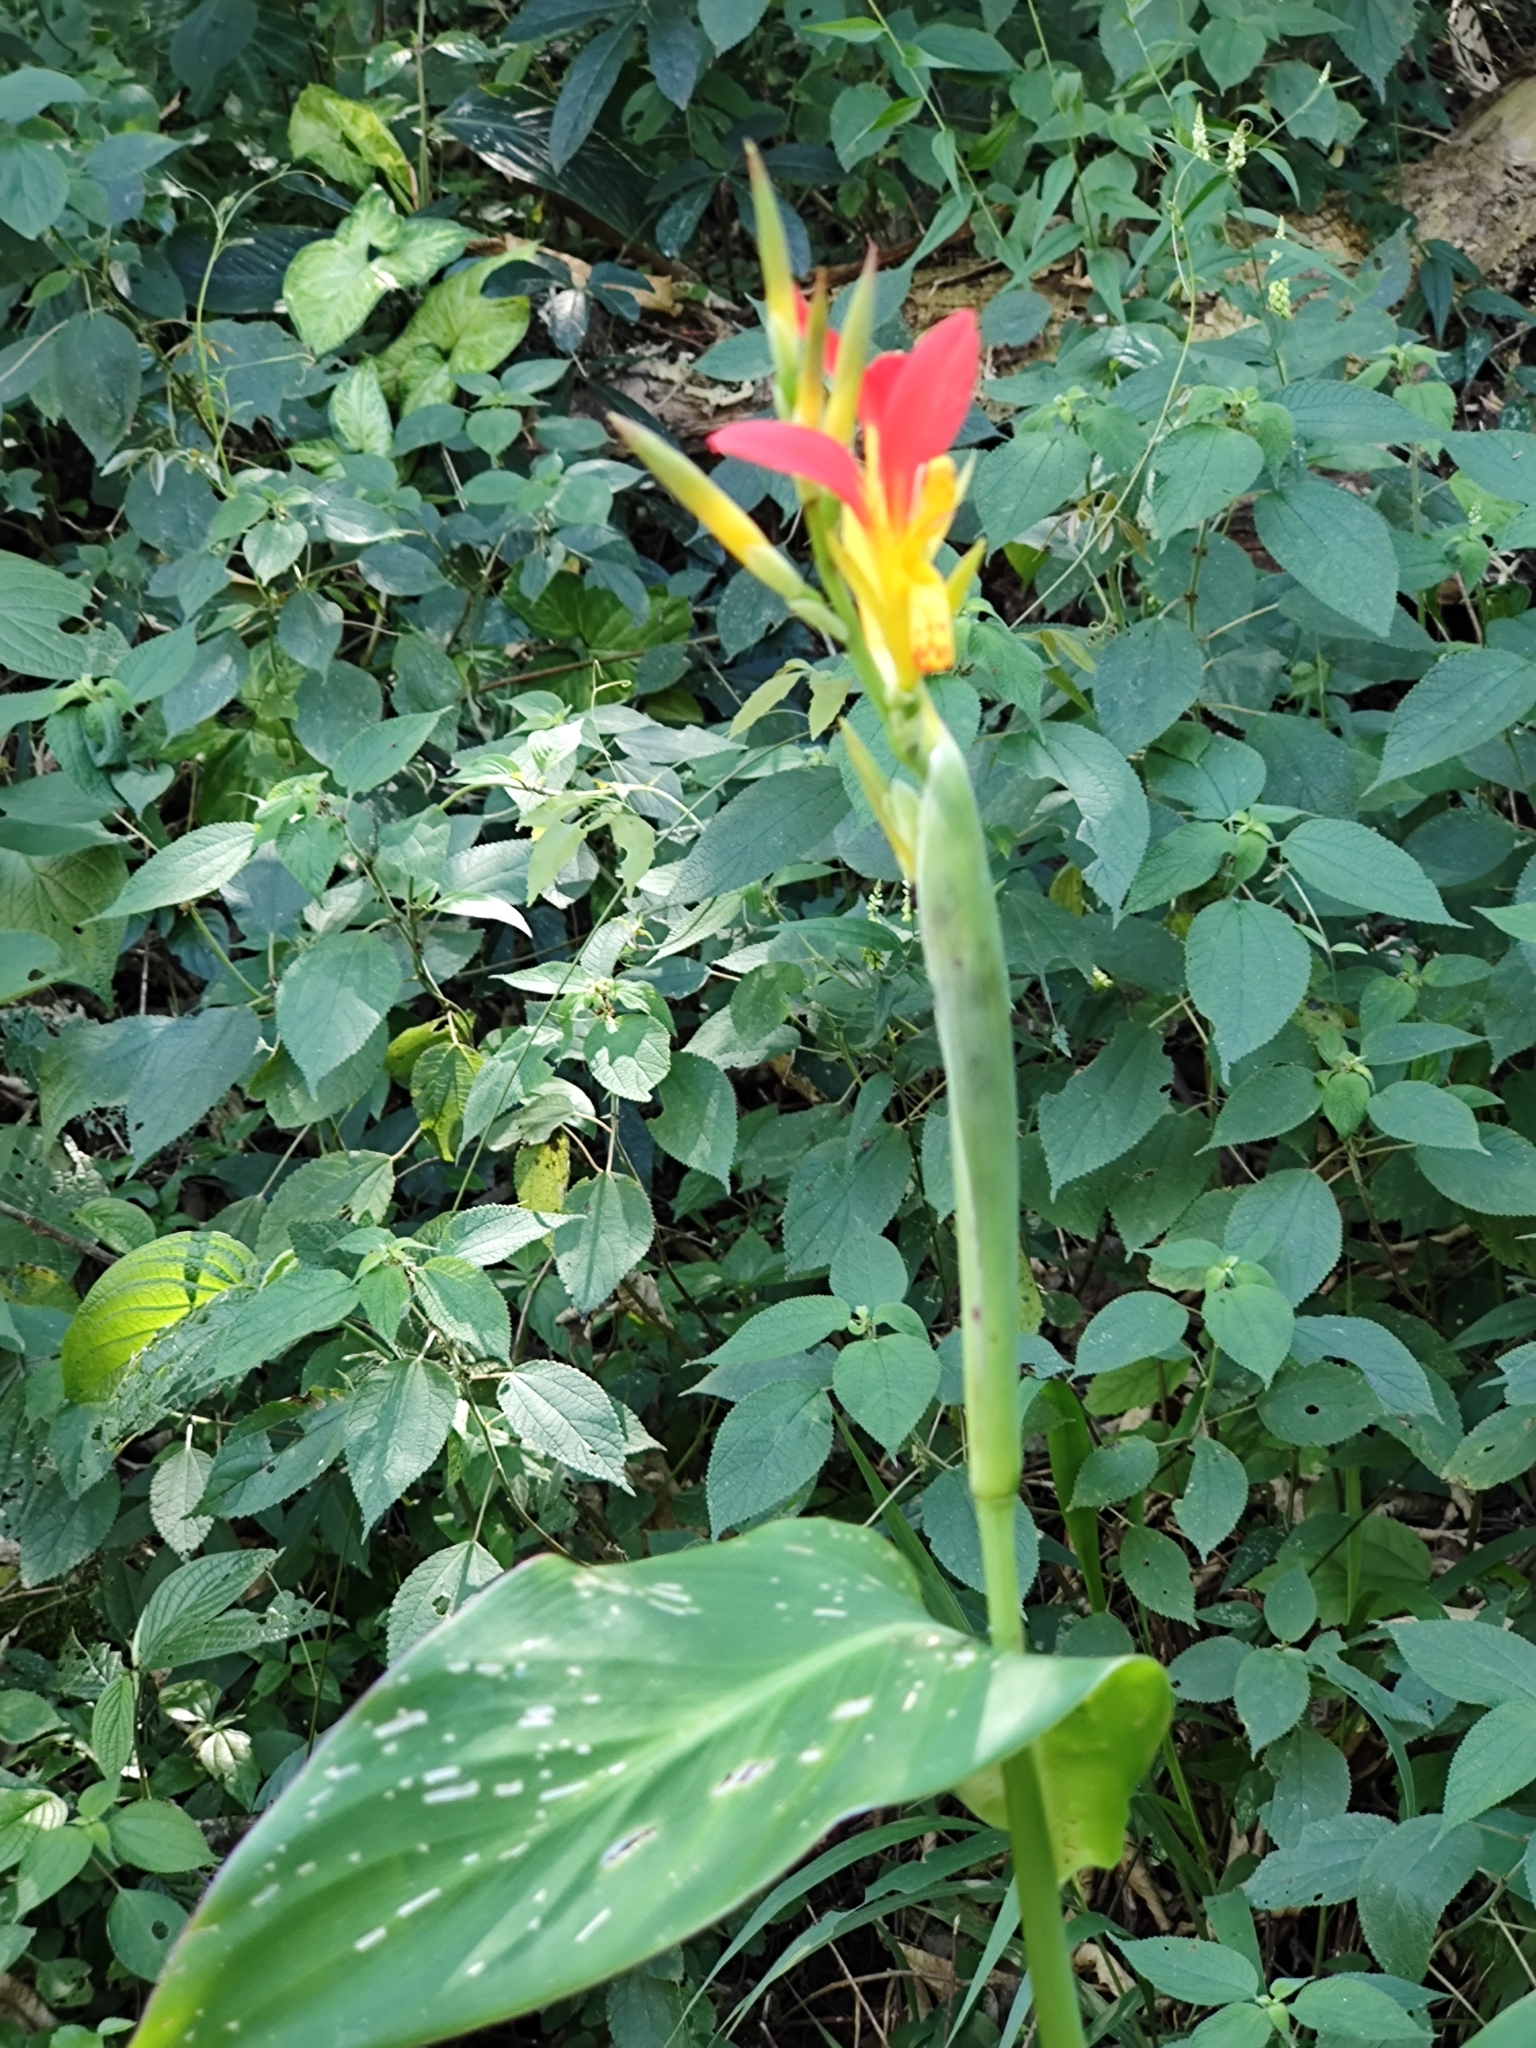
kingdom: Plantae
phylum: Tracheophyta
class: Liliopsida
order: Zingiberales
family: Cannaceae
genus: Canna
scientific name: Canna indica
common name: Indian shot
